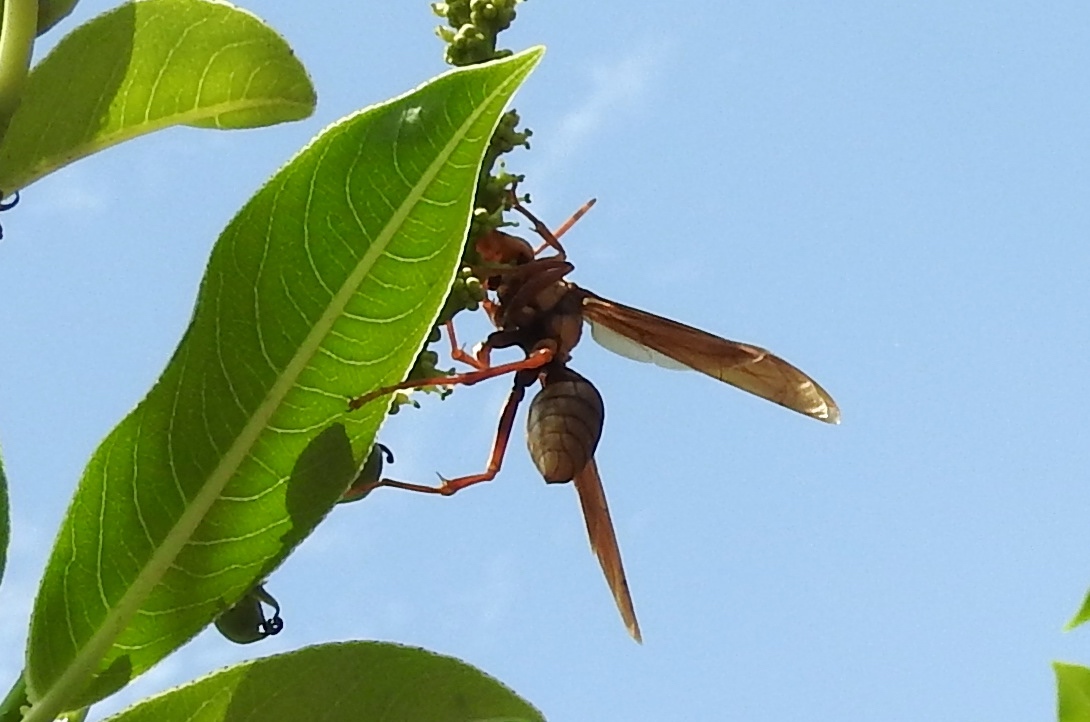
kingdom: Animalia
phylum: Arthropoda
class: Insecta
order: Hymenoptera
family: Eumenidae
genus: Polistes
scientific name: Polistes
